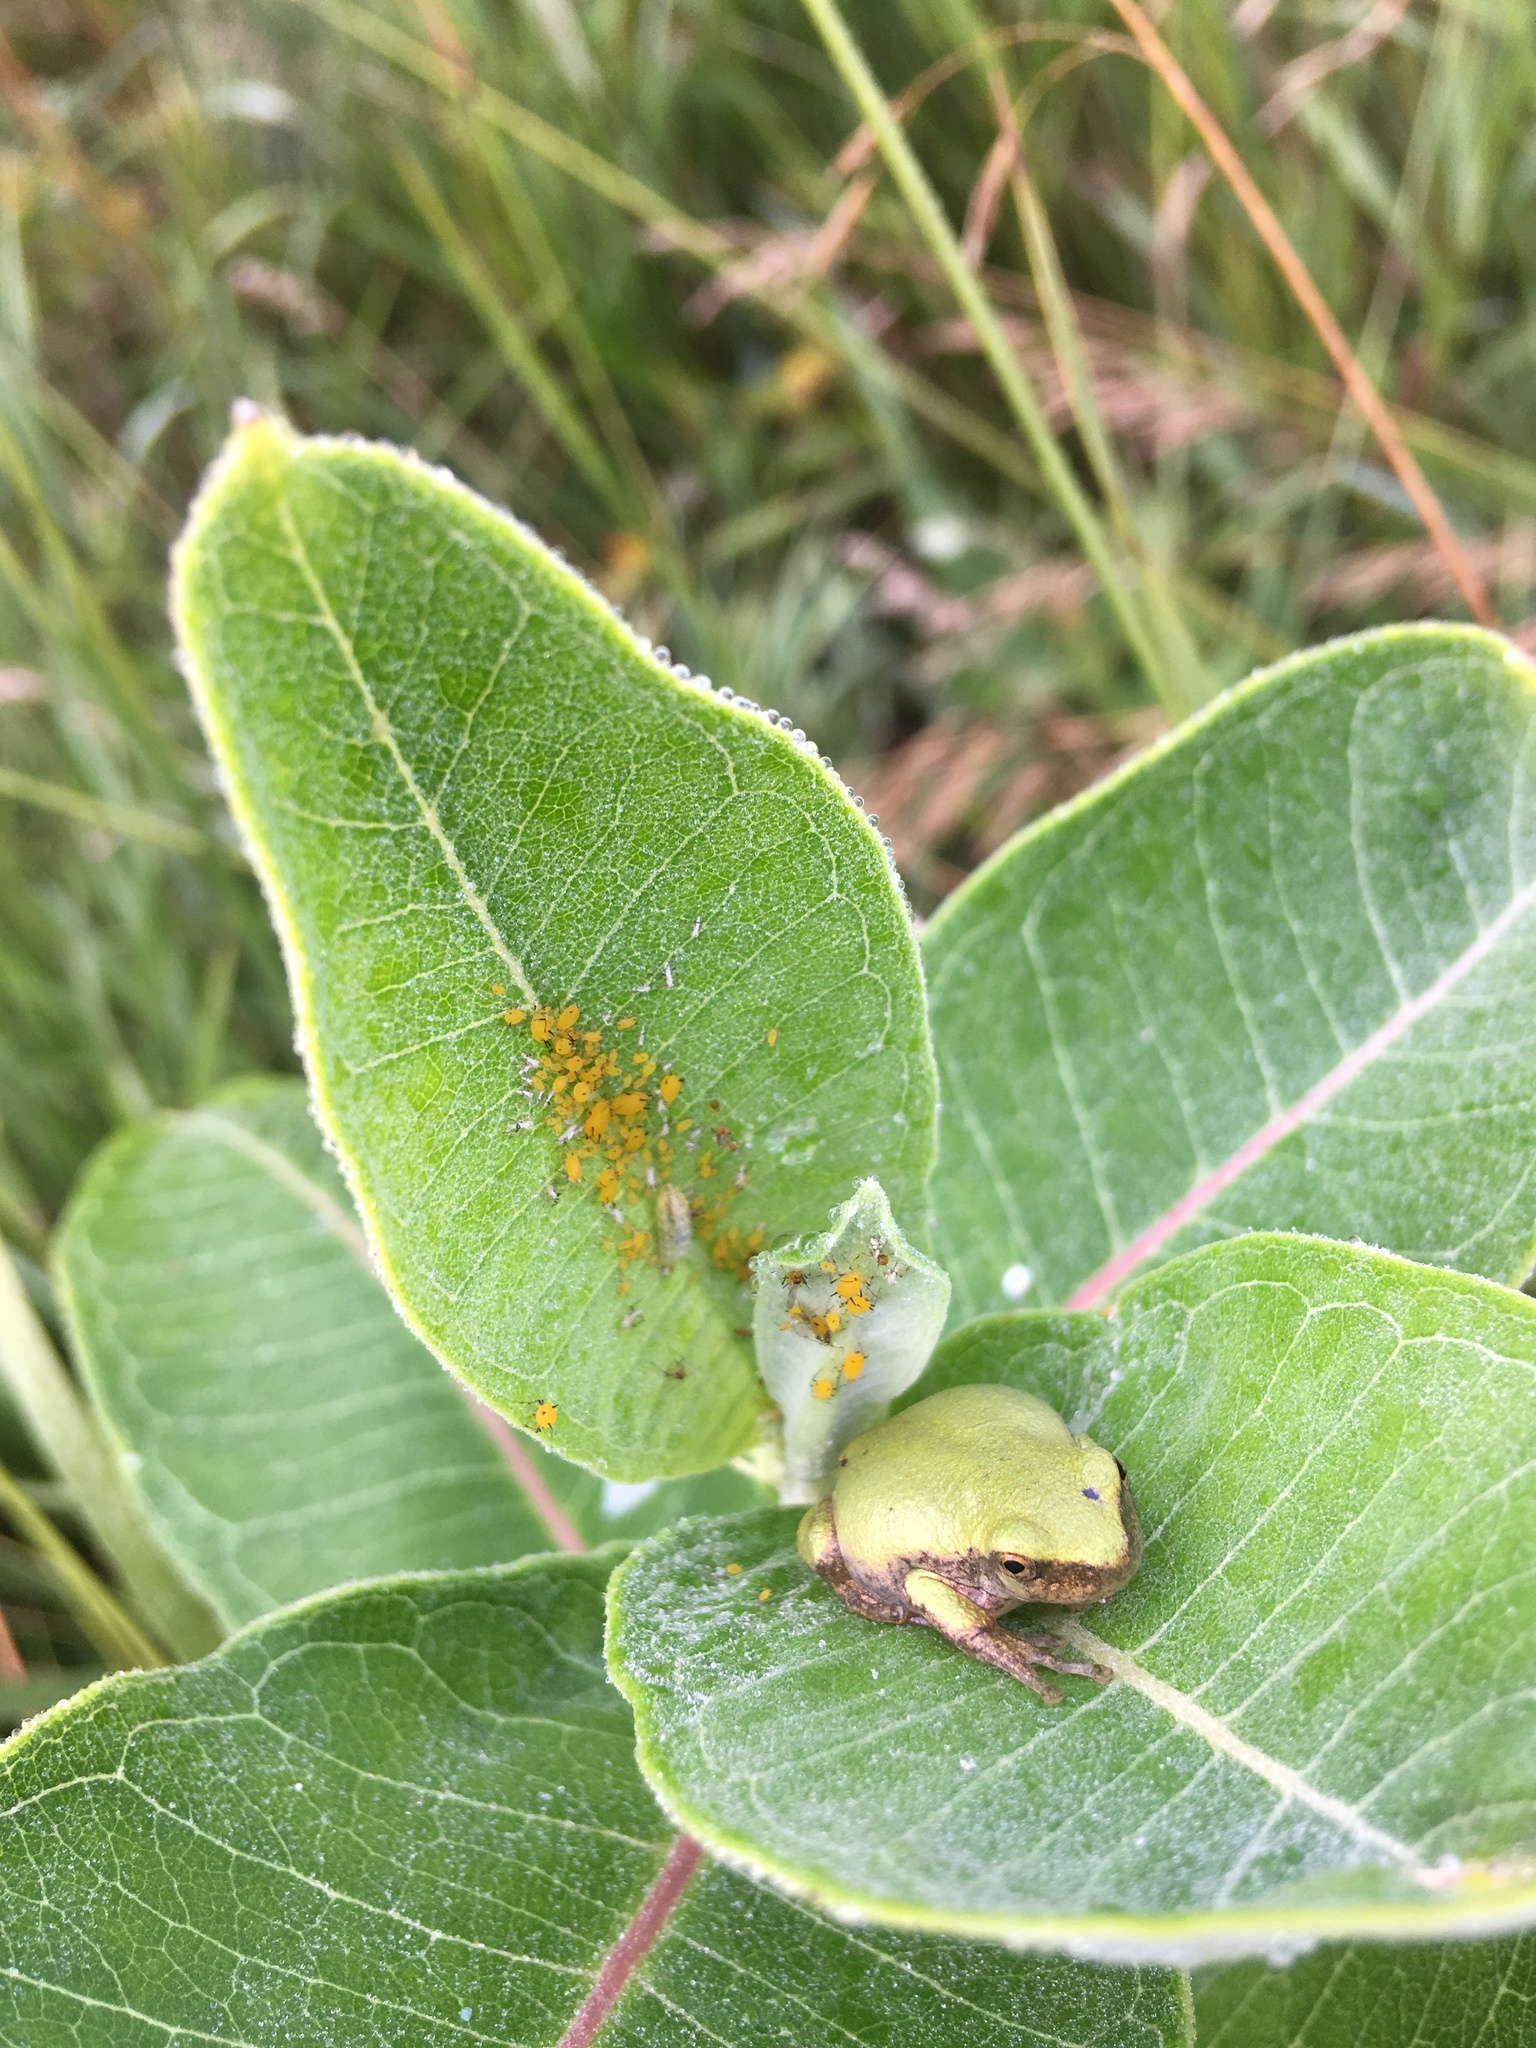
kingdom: Animalia
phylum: Chordata
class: Amphibia
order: Anura
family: Hylidae
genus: Dryophytes
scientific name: Dryophytes chrysoscelis
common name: Cope's gray treefrog
